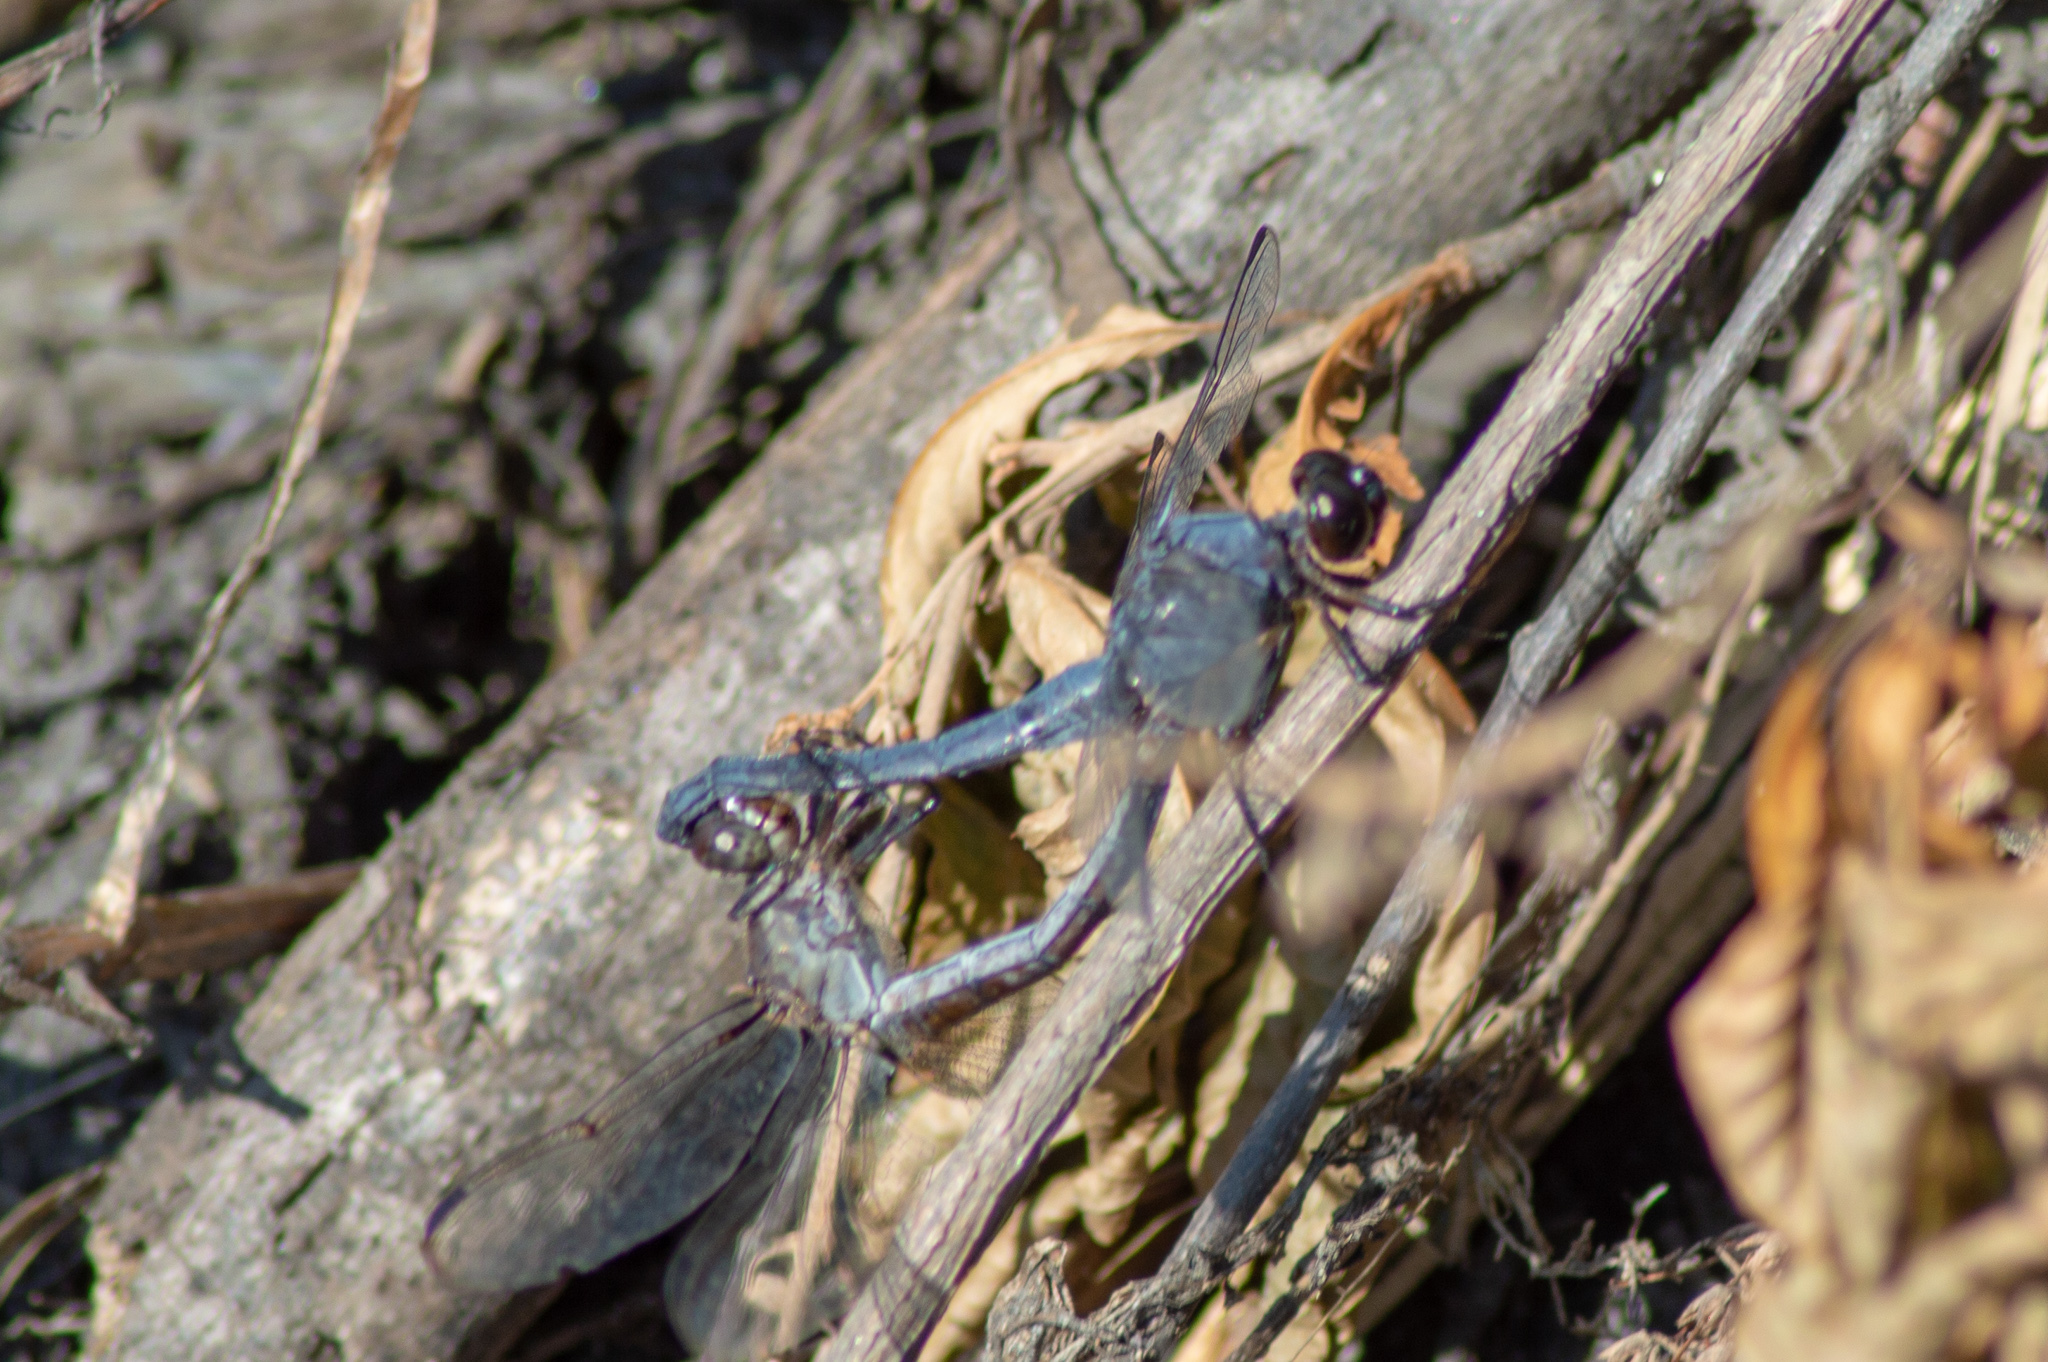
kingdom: Animalia
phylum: Arthropoda
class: Insecta
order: Odonata
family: Libellulidae
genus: Libellula
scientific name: Libellula incesta
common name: Slaty skimmer
